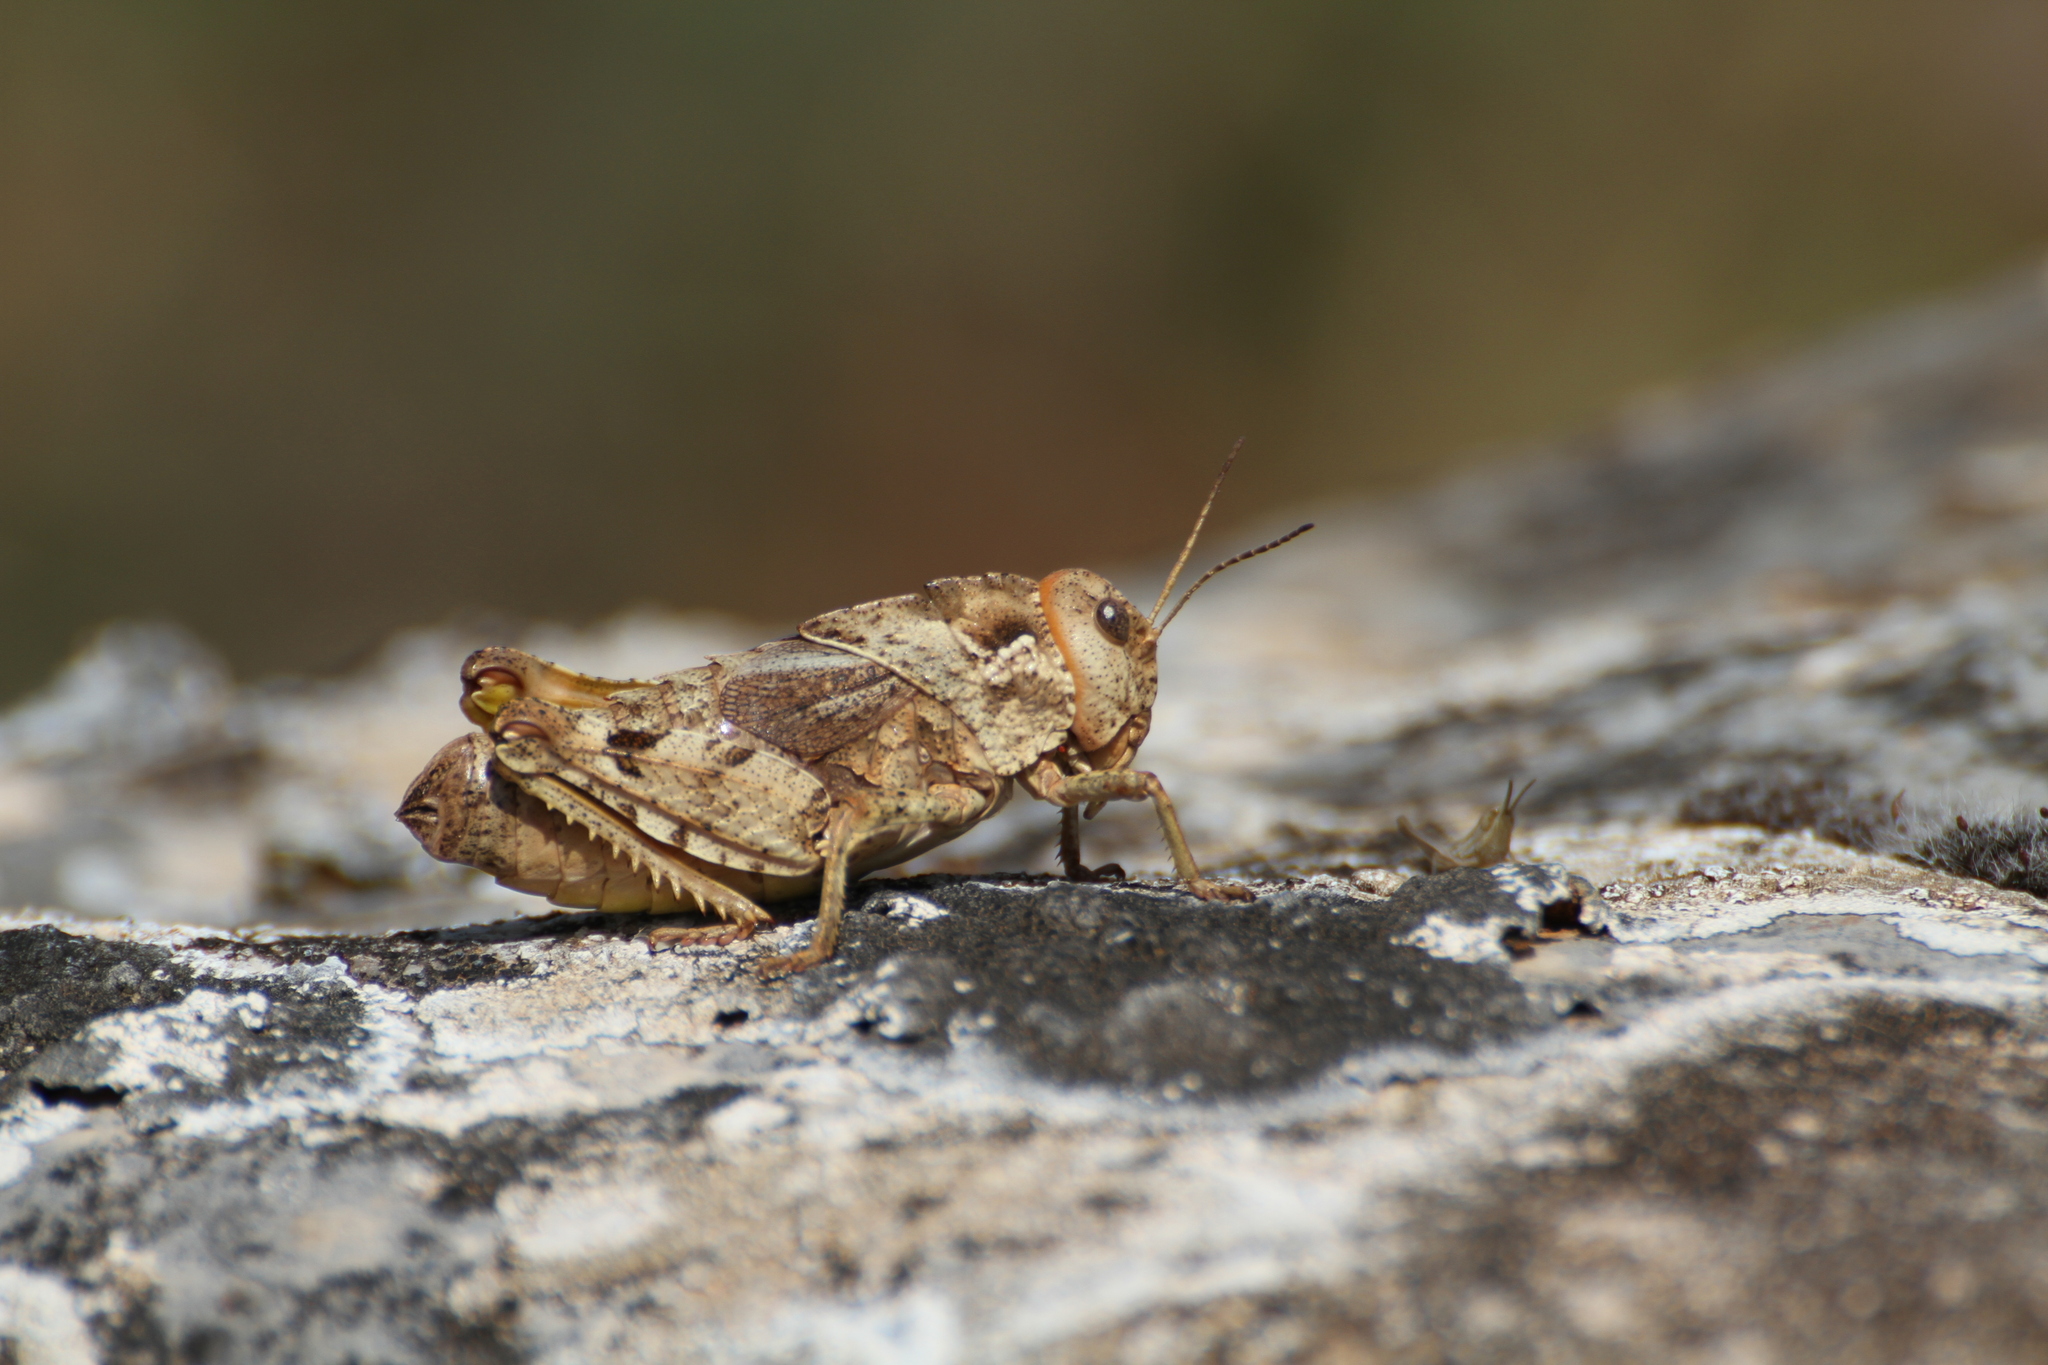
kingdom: Animalia
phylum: Arthropoda
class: Insecta
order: Orthoptera
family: Pamphagidae
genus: Prionotropis
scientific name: Prionotropis azami
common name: French stone grasshopper
